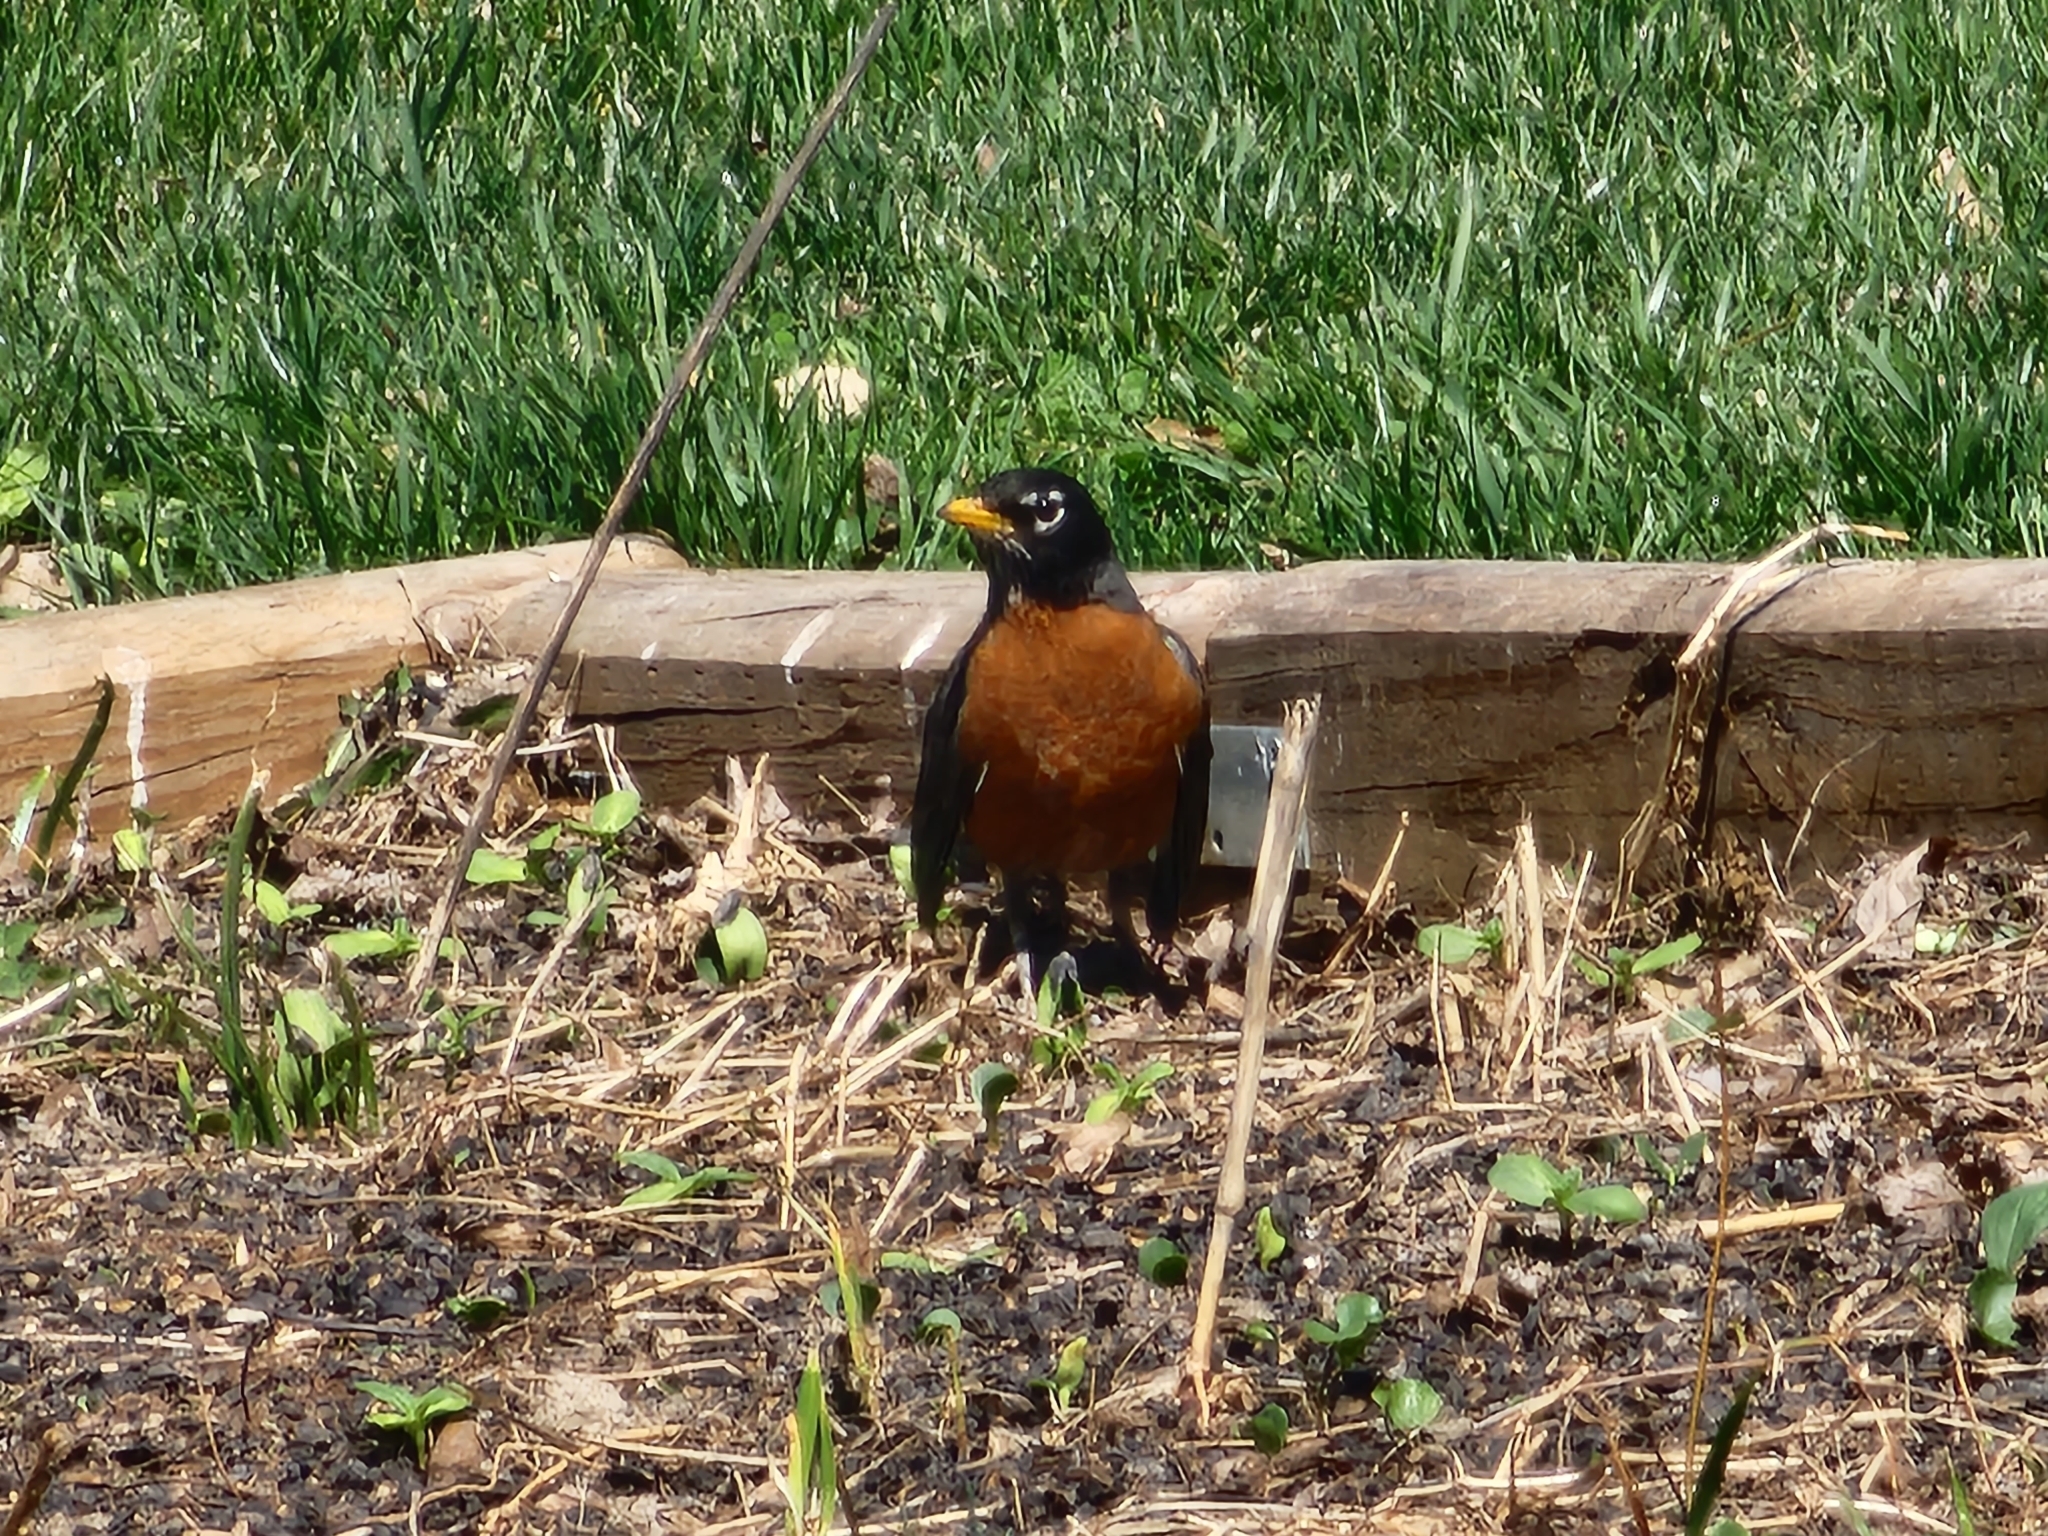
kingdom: Animalia
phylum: Chordata
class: Aves
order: Passeriformes
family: Turdidae
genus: Turdus
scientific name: Turdus migratorius
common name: American robin
